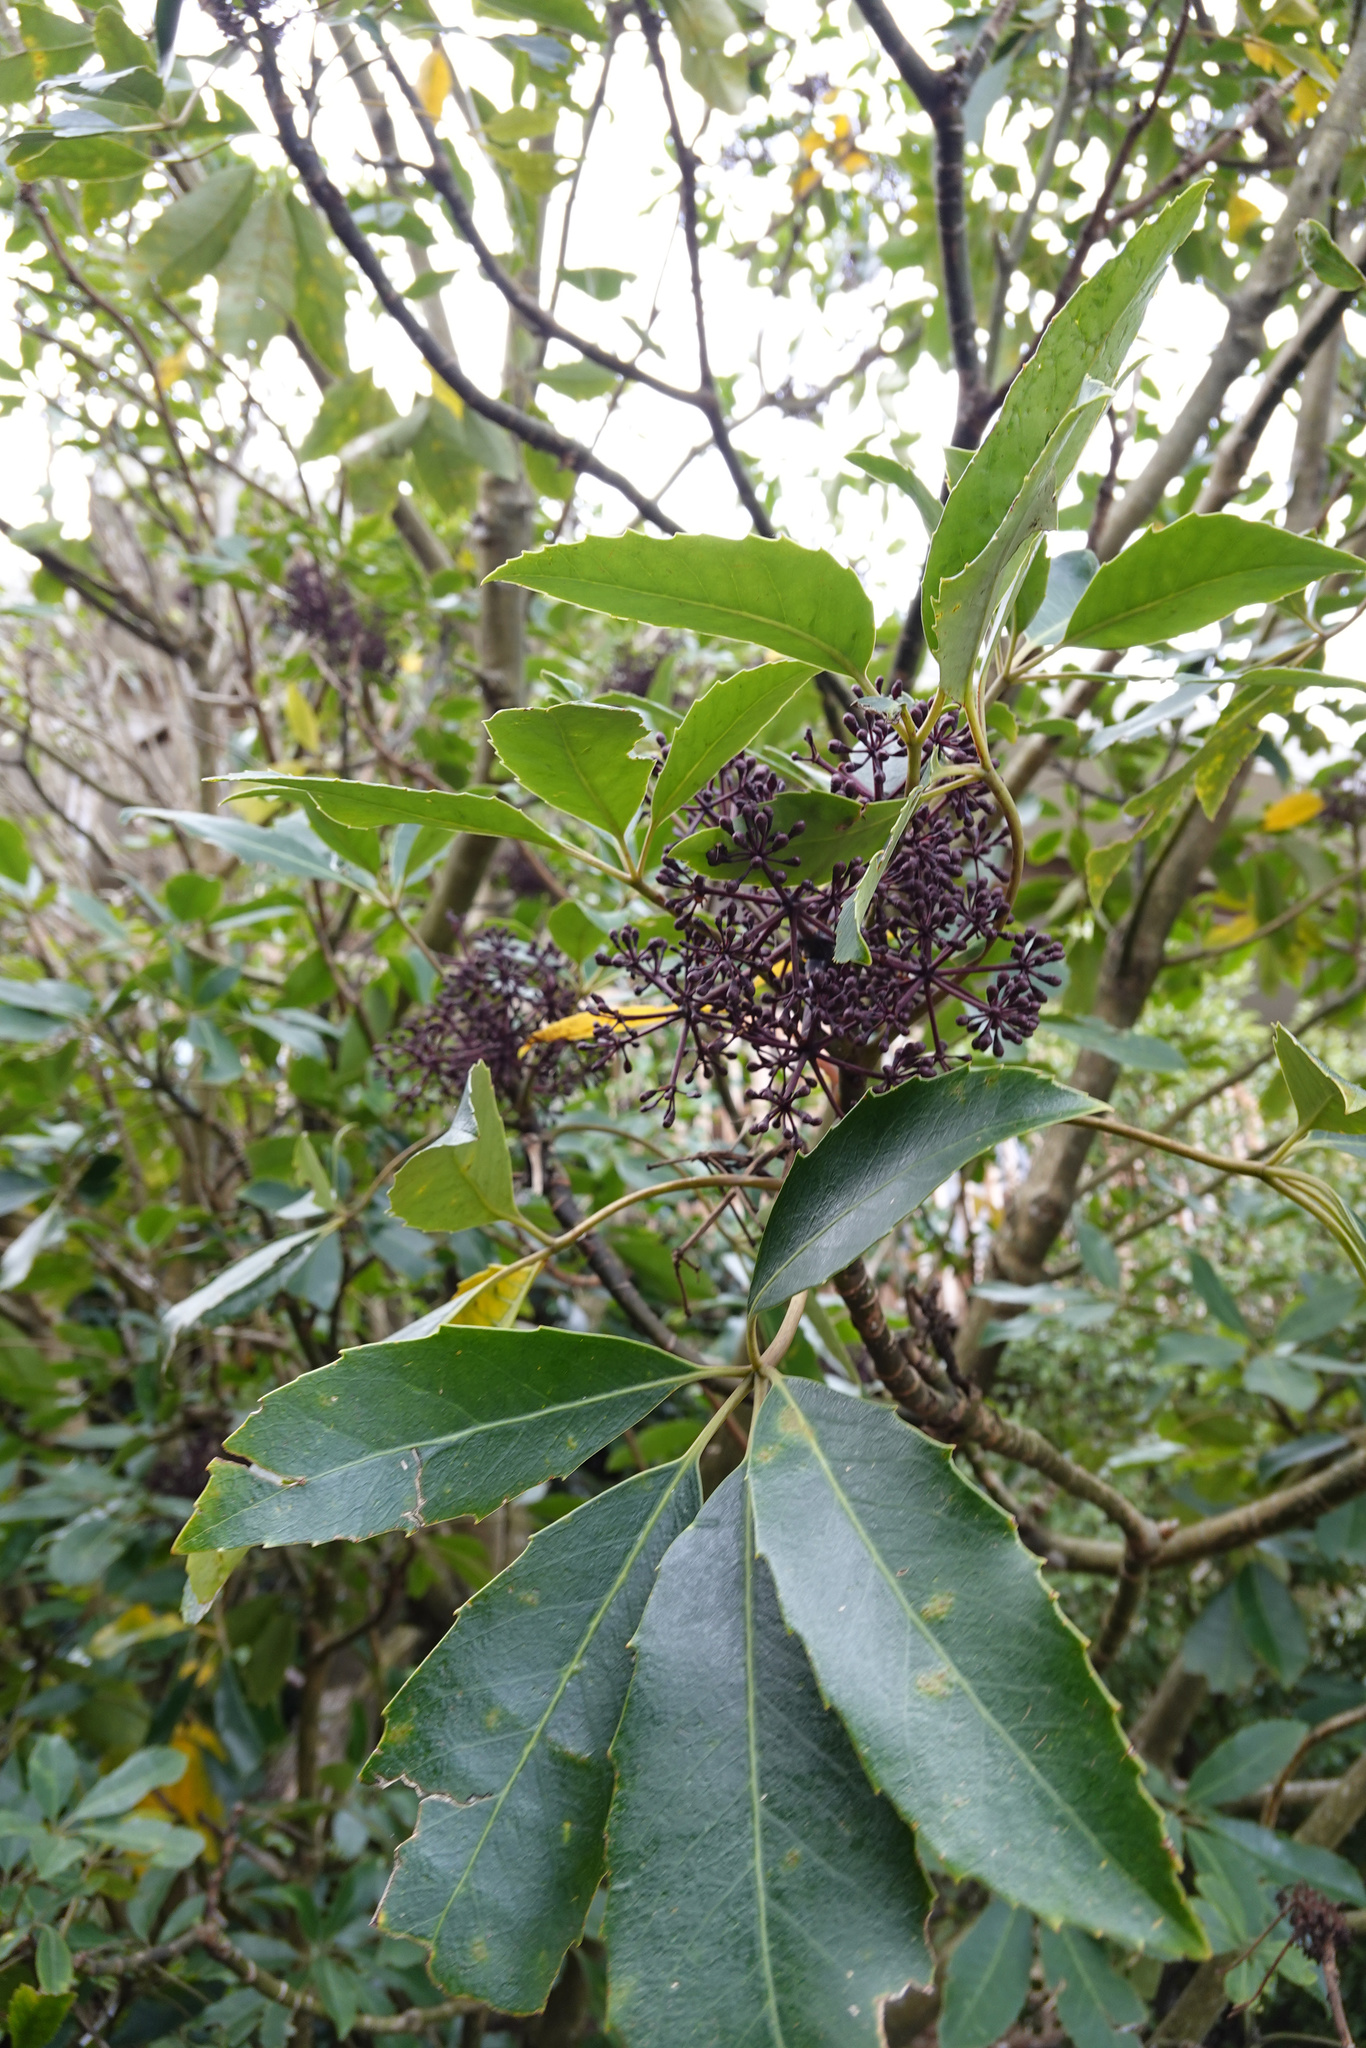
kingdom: Plantae
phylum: Tracheophyta
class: Magnoliopsida
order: Apiales
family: Araliaceae
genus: Neopanax
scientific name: Neopanax arboreus
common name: Five-fingers
